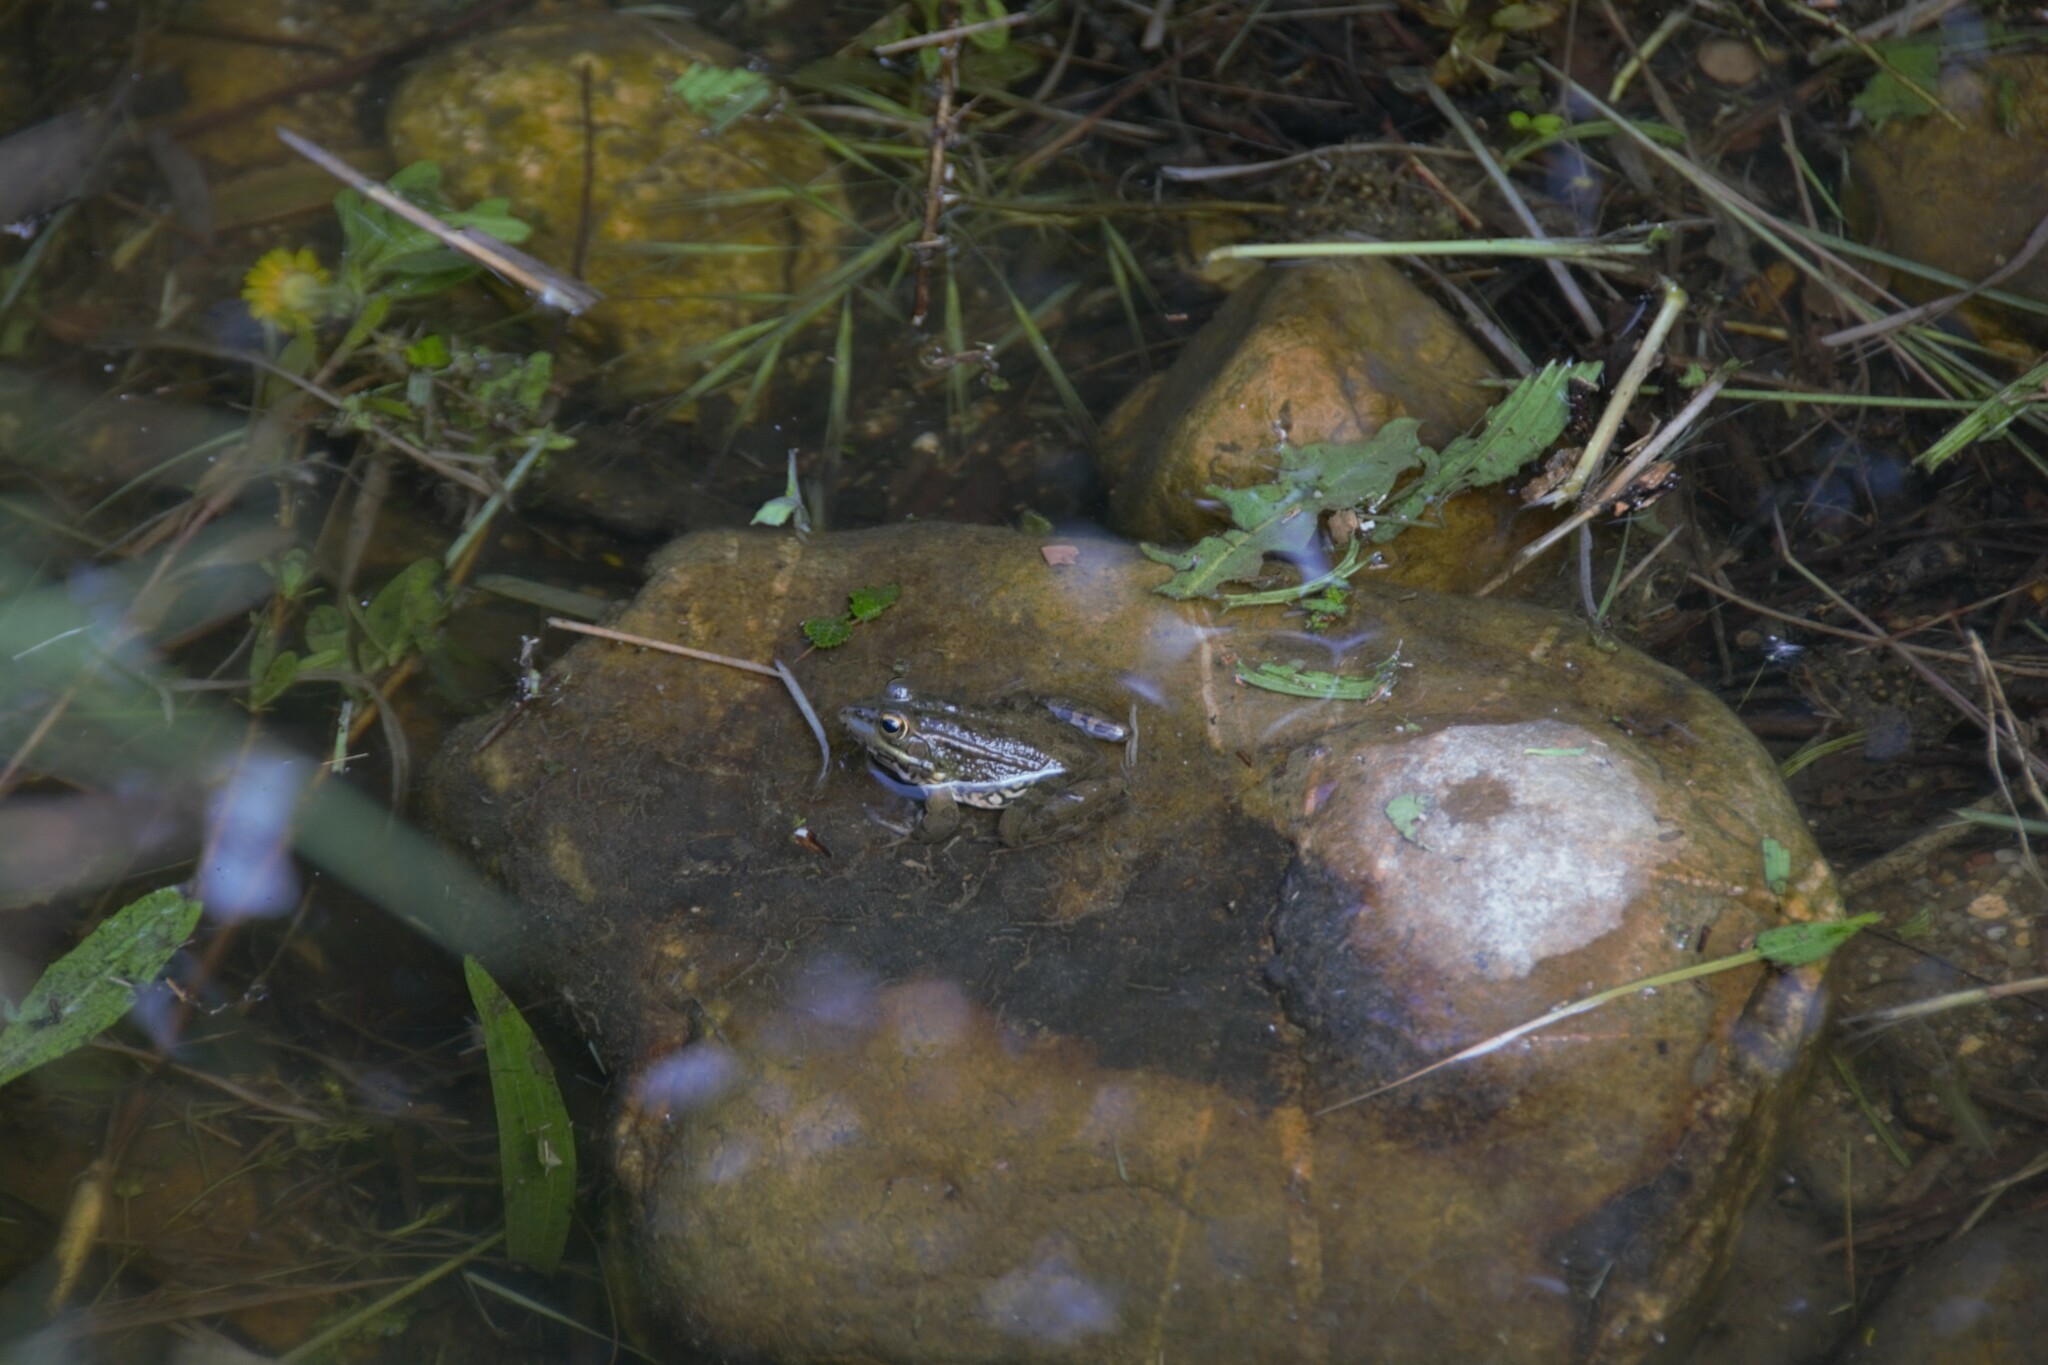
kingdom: Animalia
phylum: Chordata
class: Amphibia
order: Anura
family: Ranidae
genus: Pelophylax
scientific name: Pelophylax perezi
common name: Perez's frog
